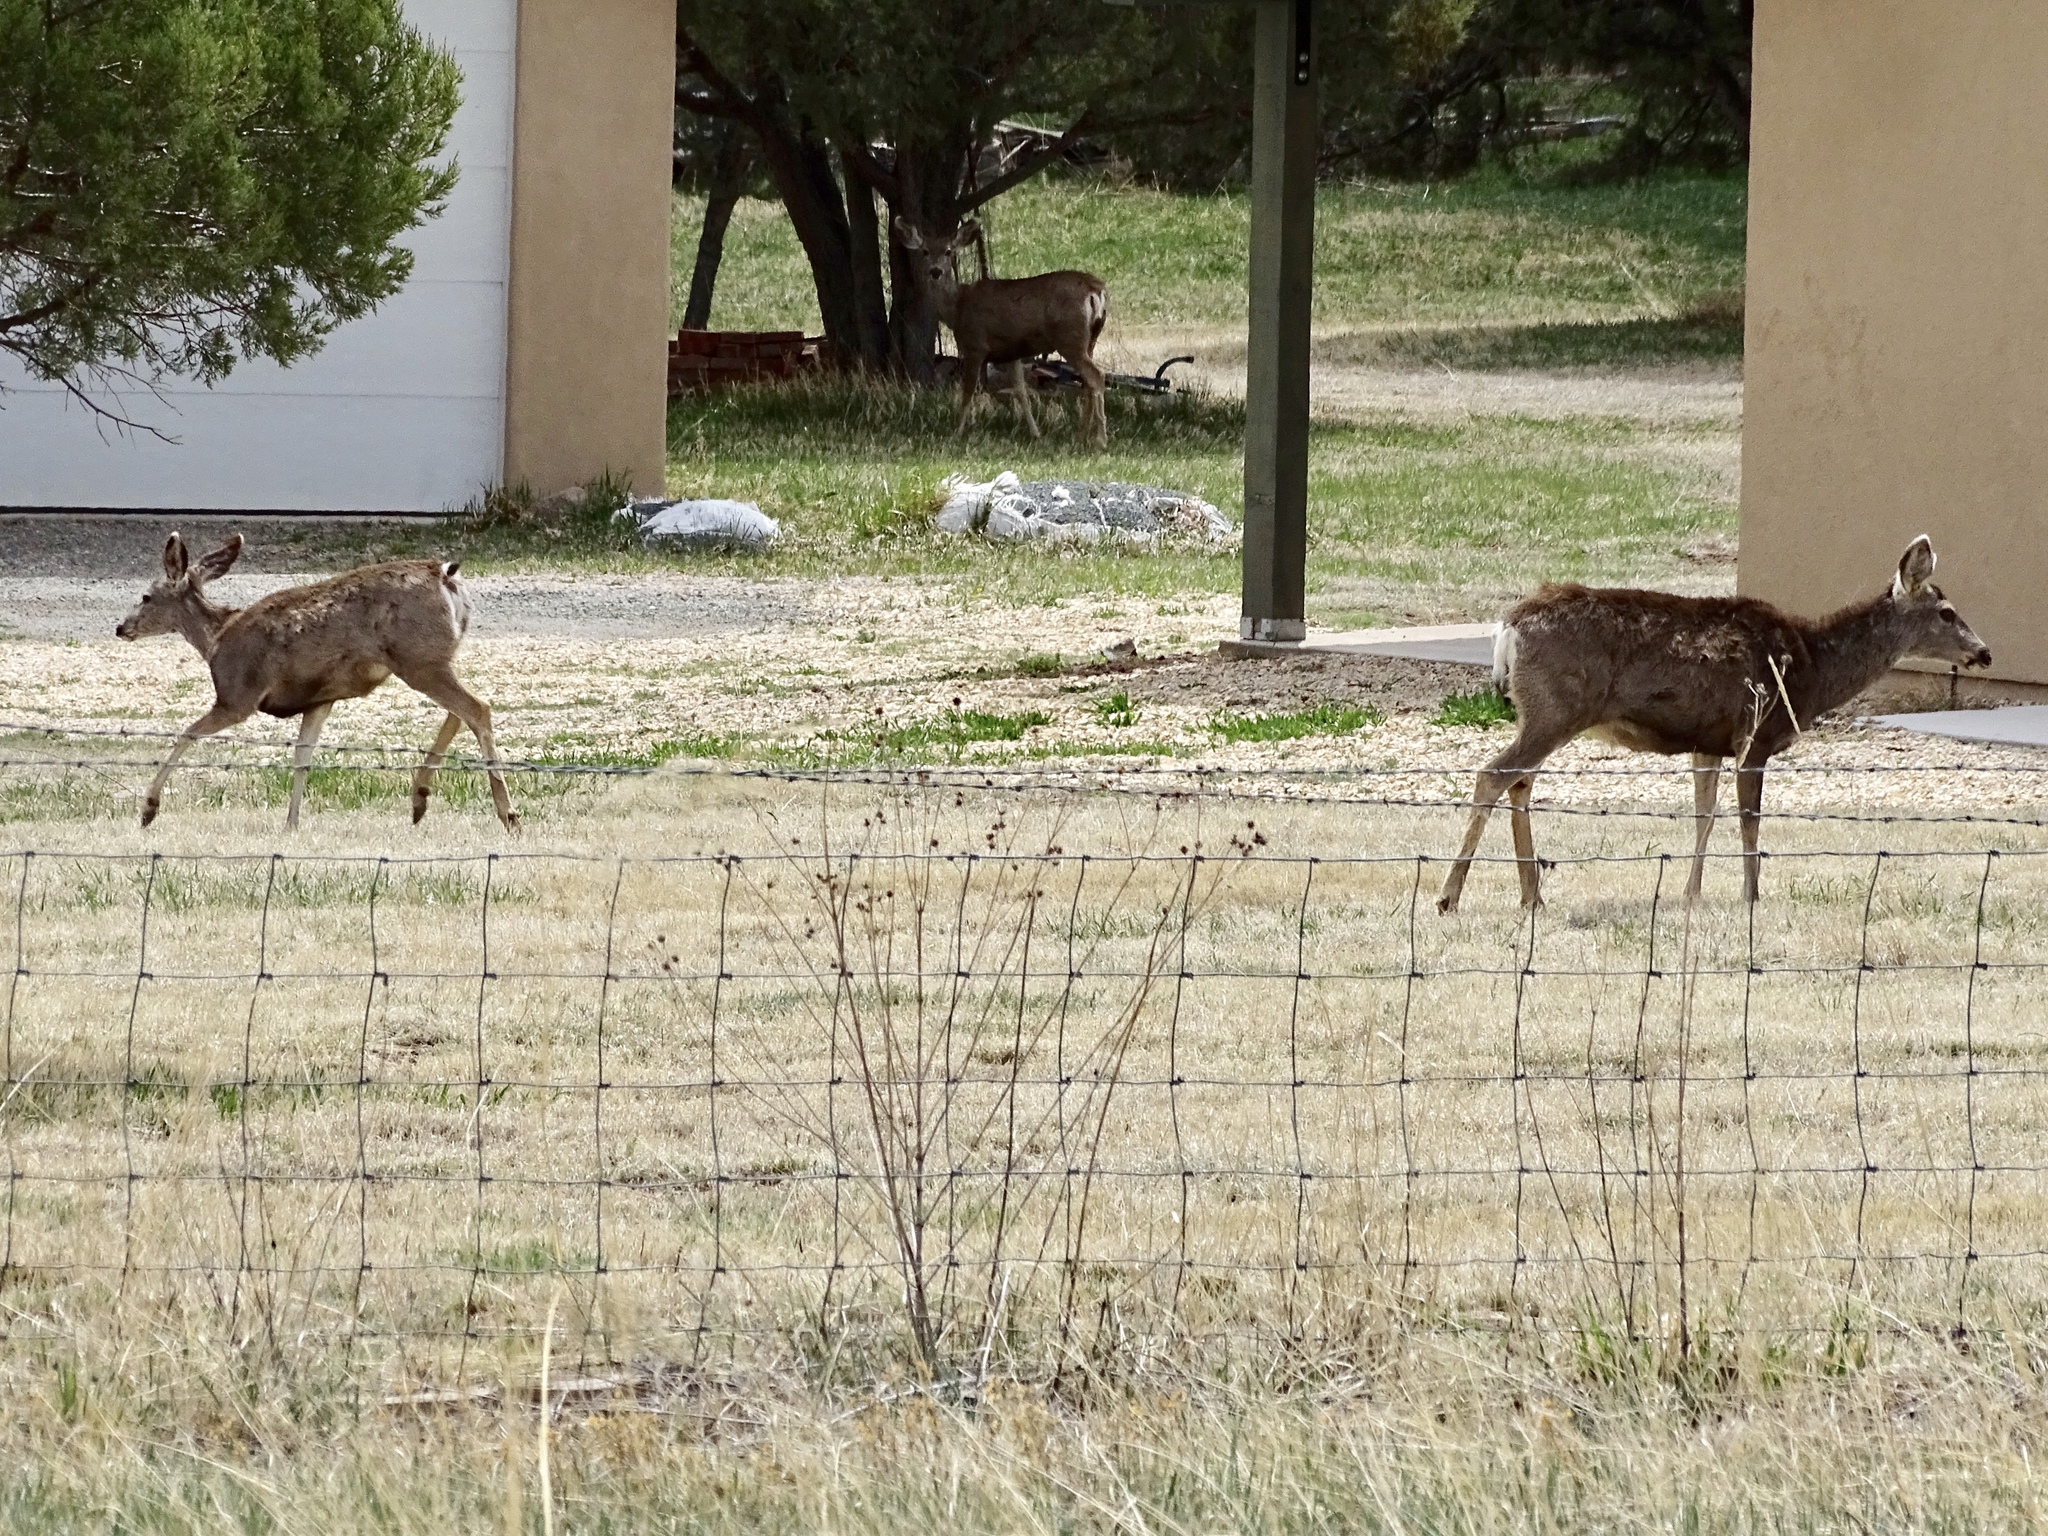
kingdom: Animalia
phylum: Chordata
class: Mammalia
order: Artiodactyla
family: Cervidae
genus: Odocoileus
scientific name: Odocoileus hemionus
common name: Mule deer
